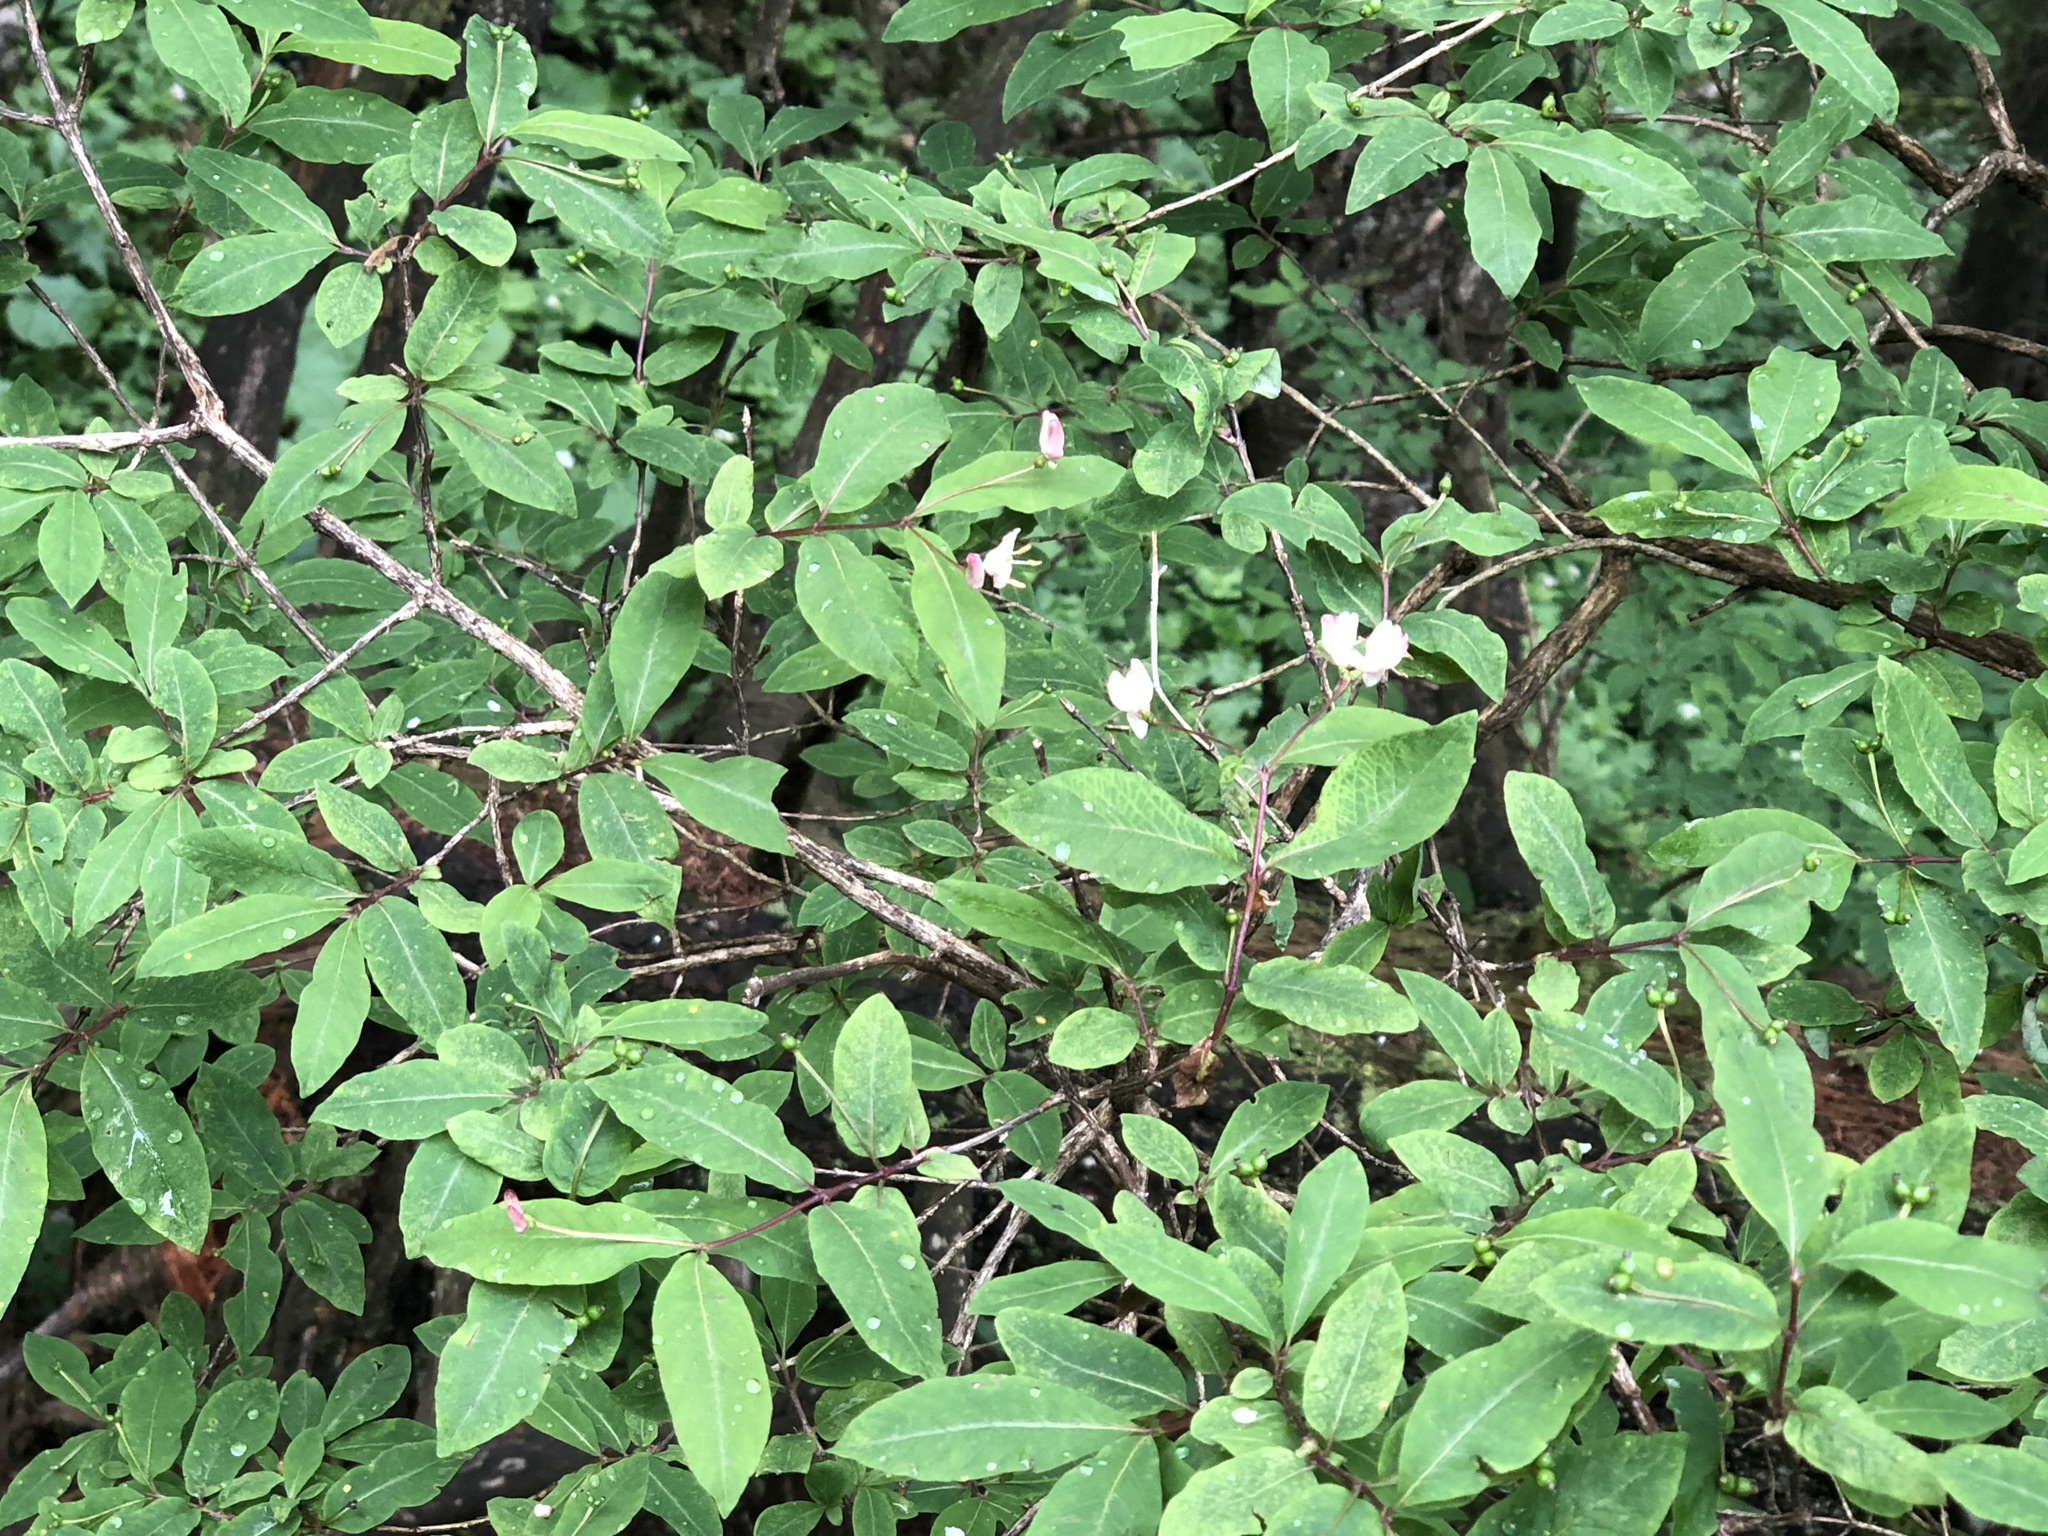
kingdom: Plantae
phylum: Tracheophyta
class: Magnoliopsida
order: Dipsacales
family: Caprifoliaceae
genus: Lonicera
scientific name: Lonicera nigra
